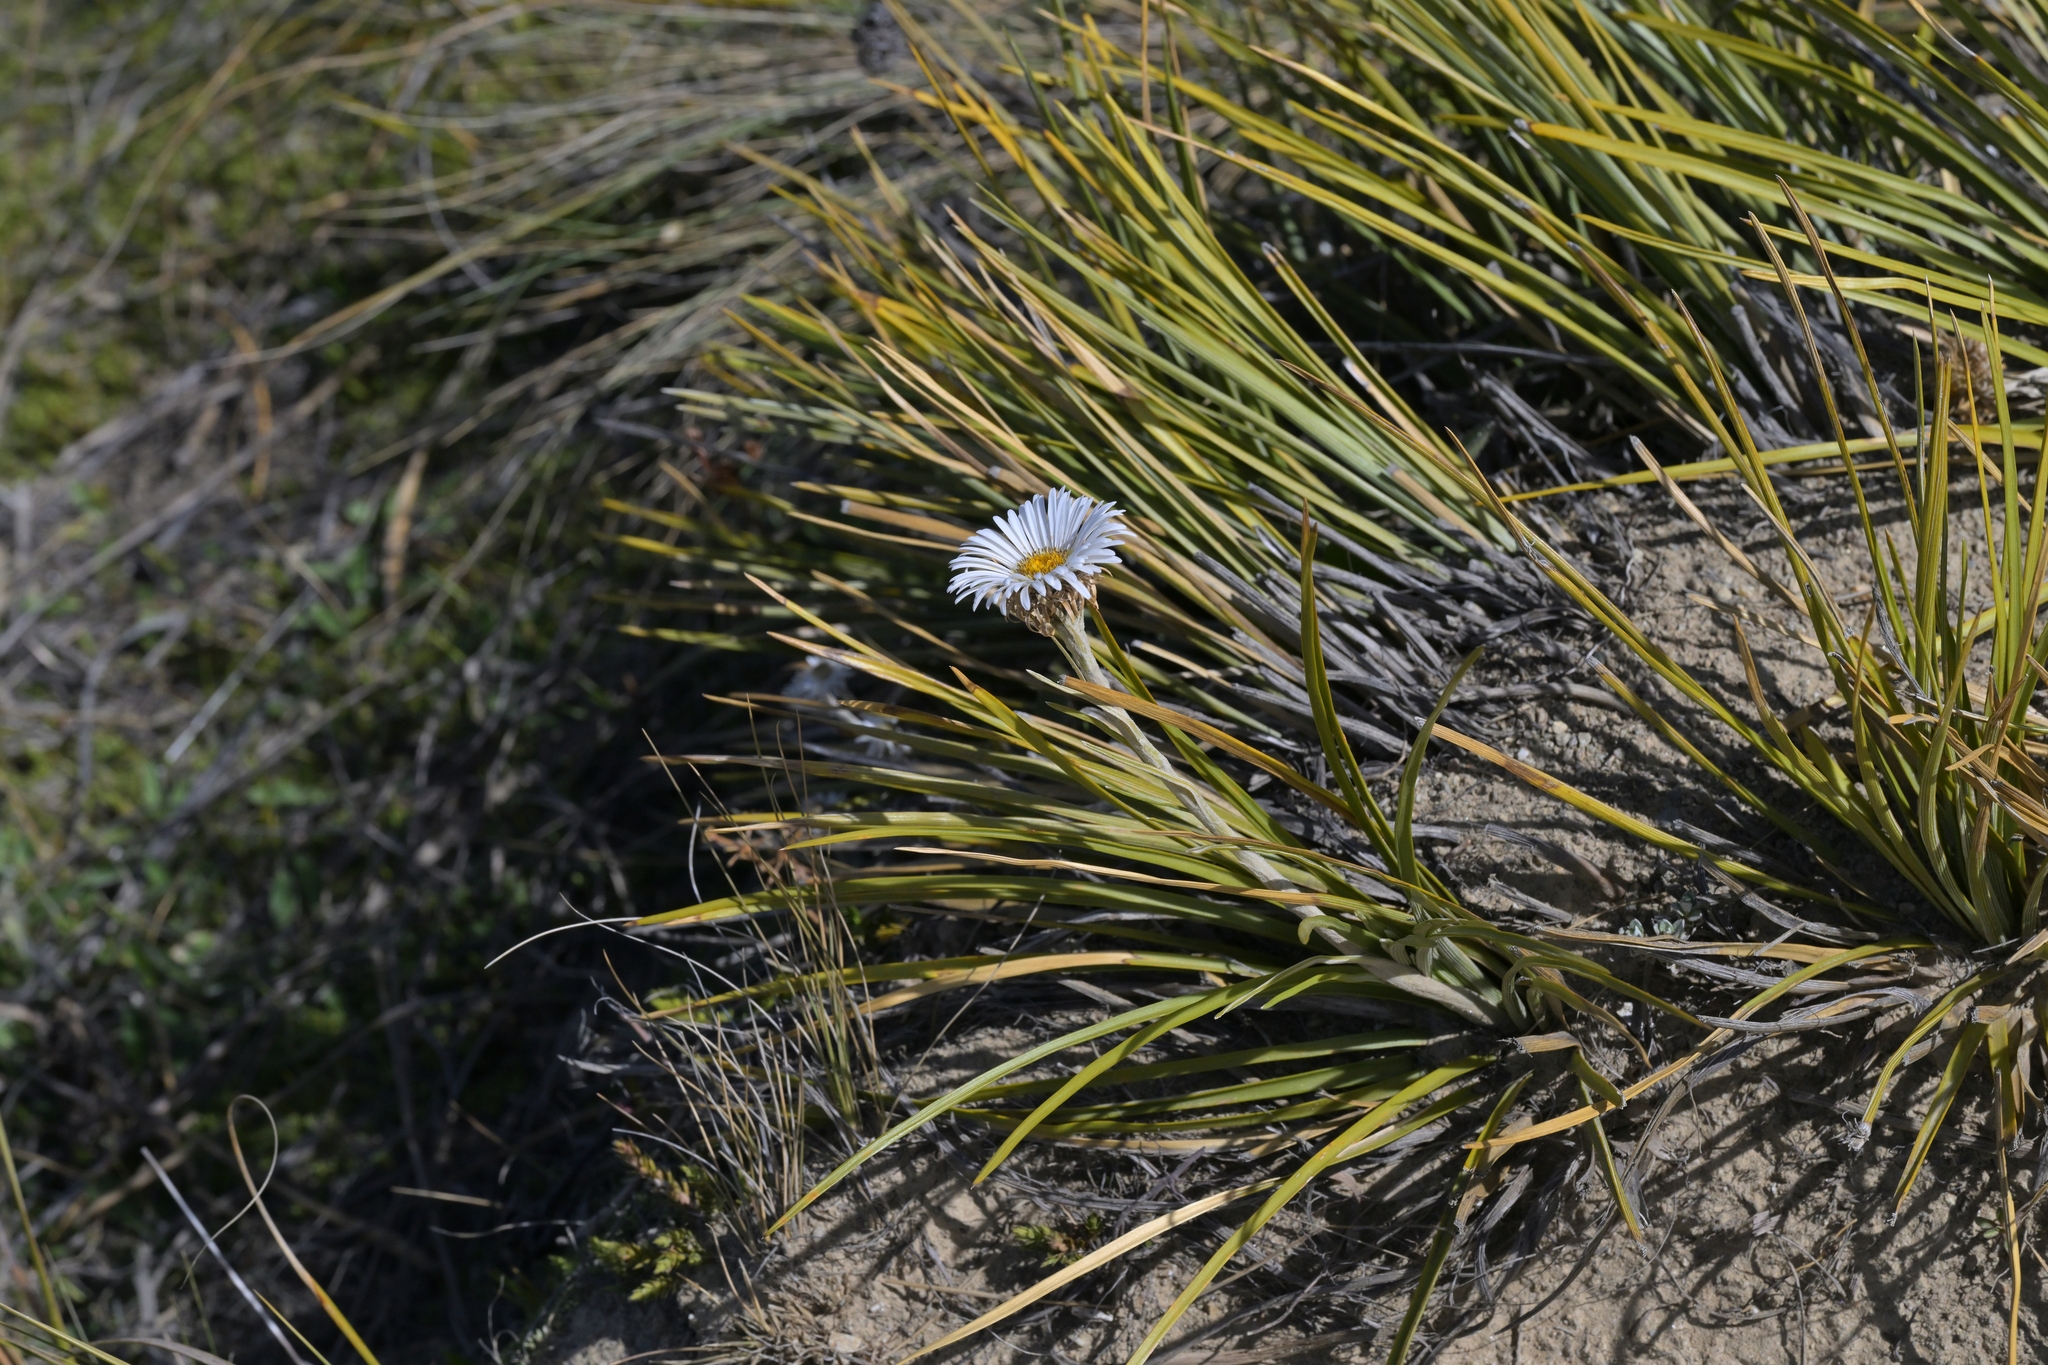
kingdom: Plantae
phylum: Tracheophyta
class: Magnoliopsida
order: Asterales
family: Asteraceae
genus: Celmisia
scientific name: Celmisia lyallii
